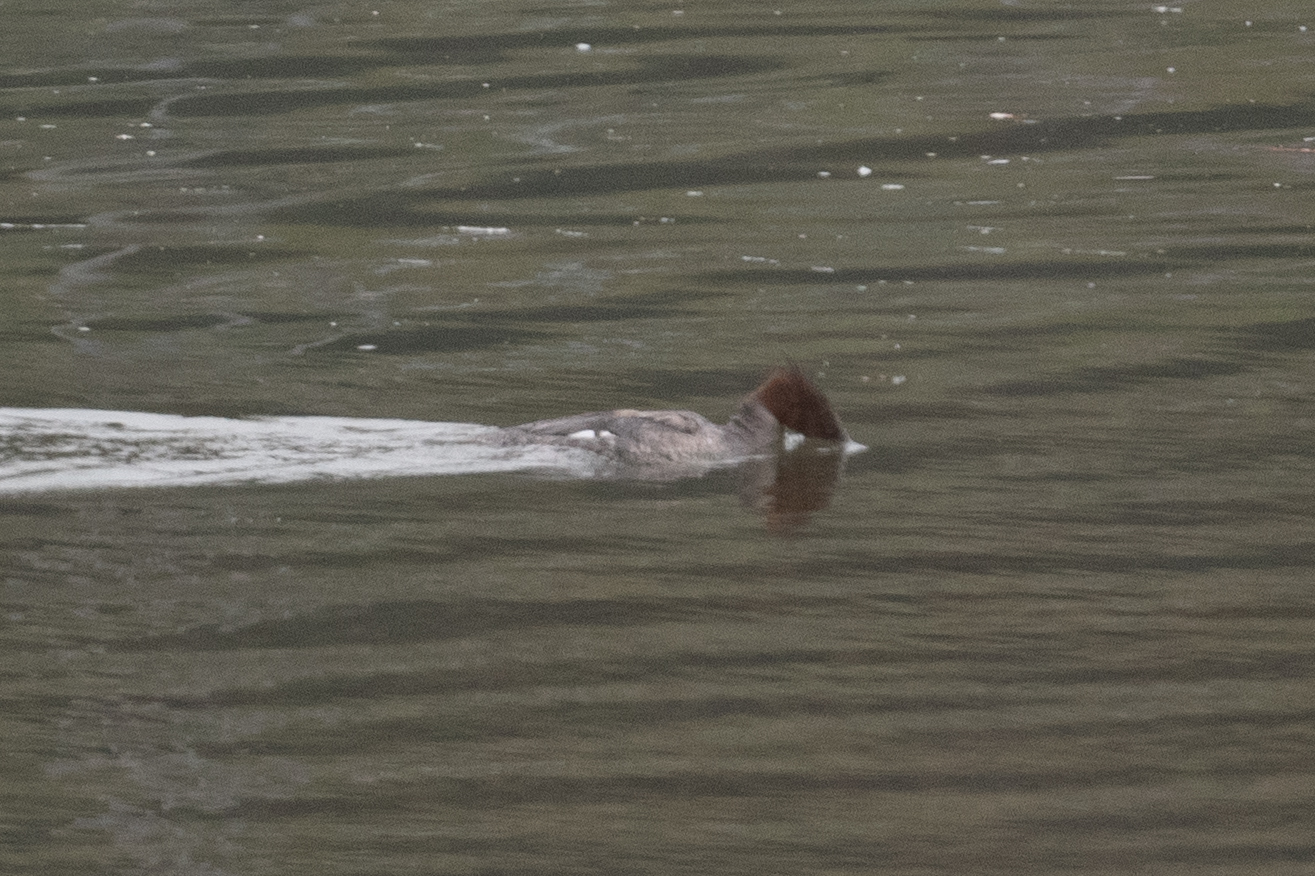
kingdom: Animalia
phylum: Chordata
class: Aves
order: Anseriformes
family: Anatidae
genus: Mergus
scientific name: Mergus merganser
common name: Common merganser
